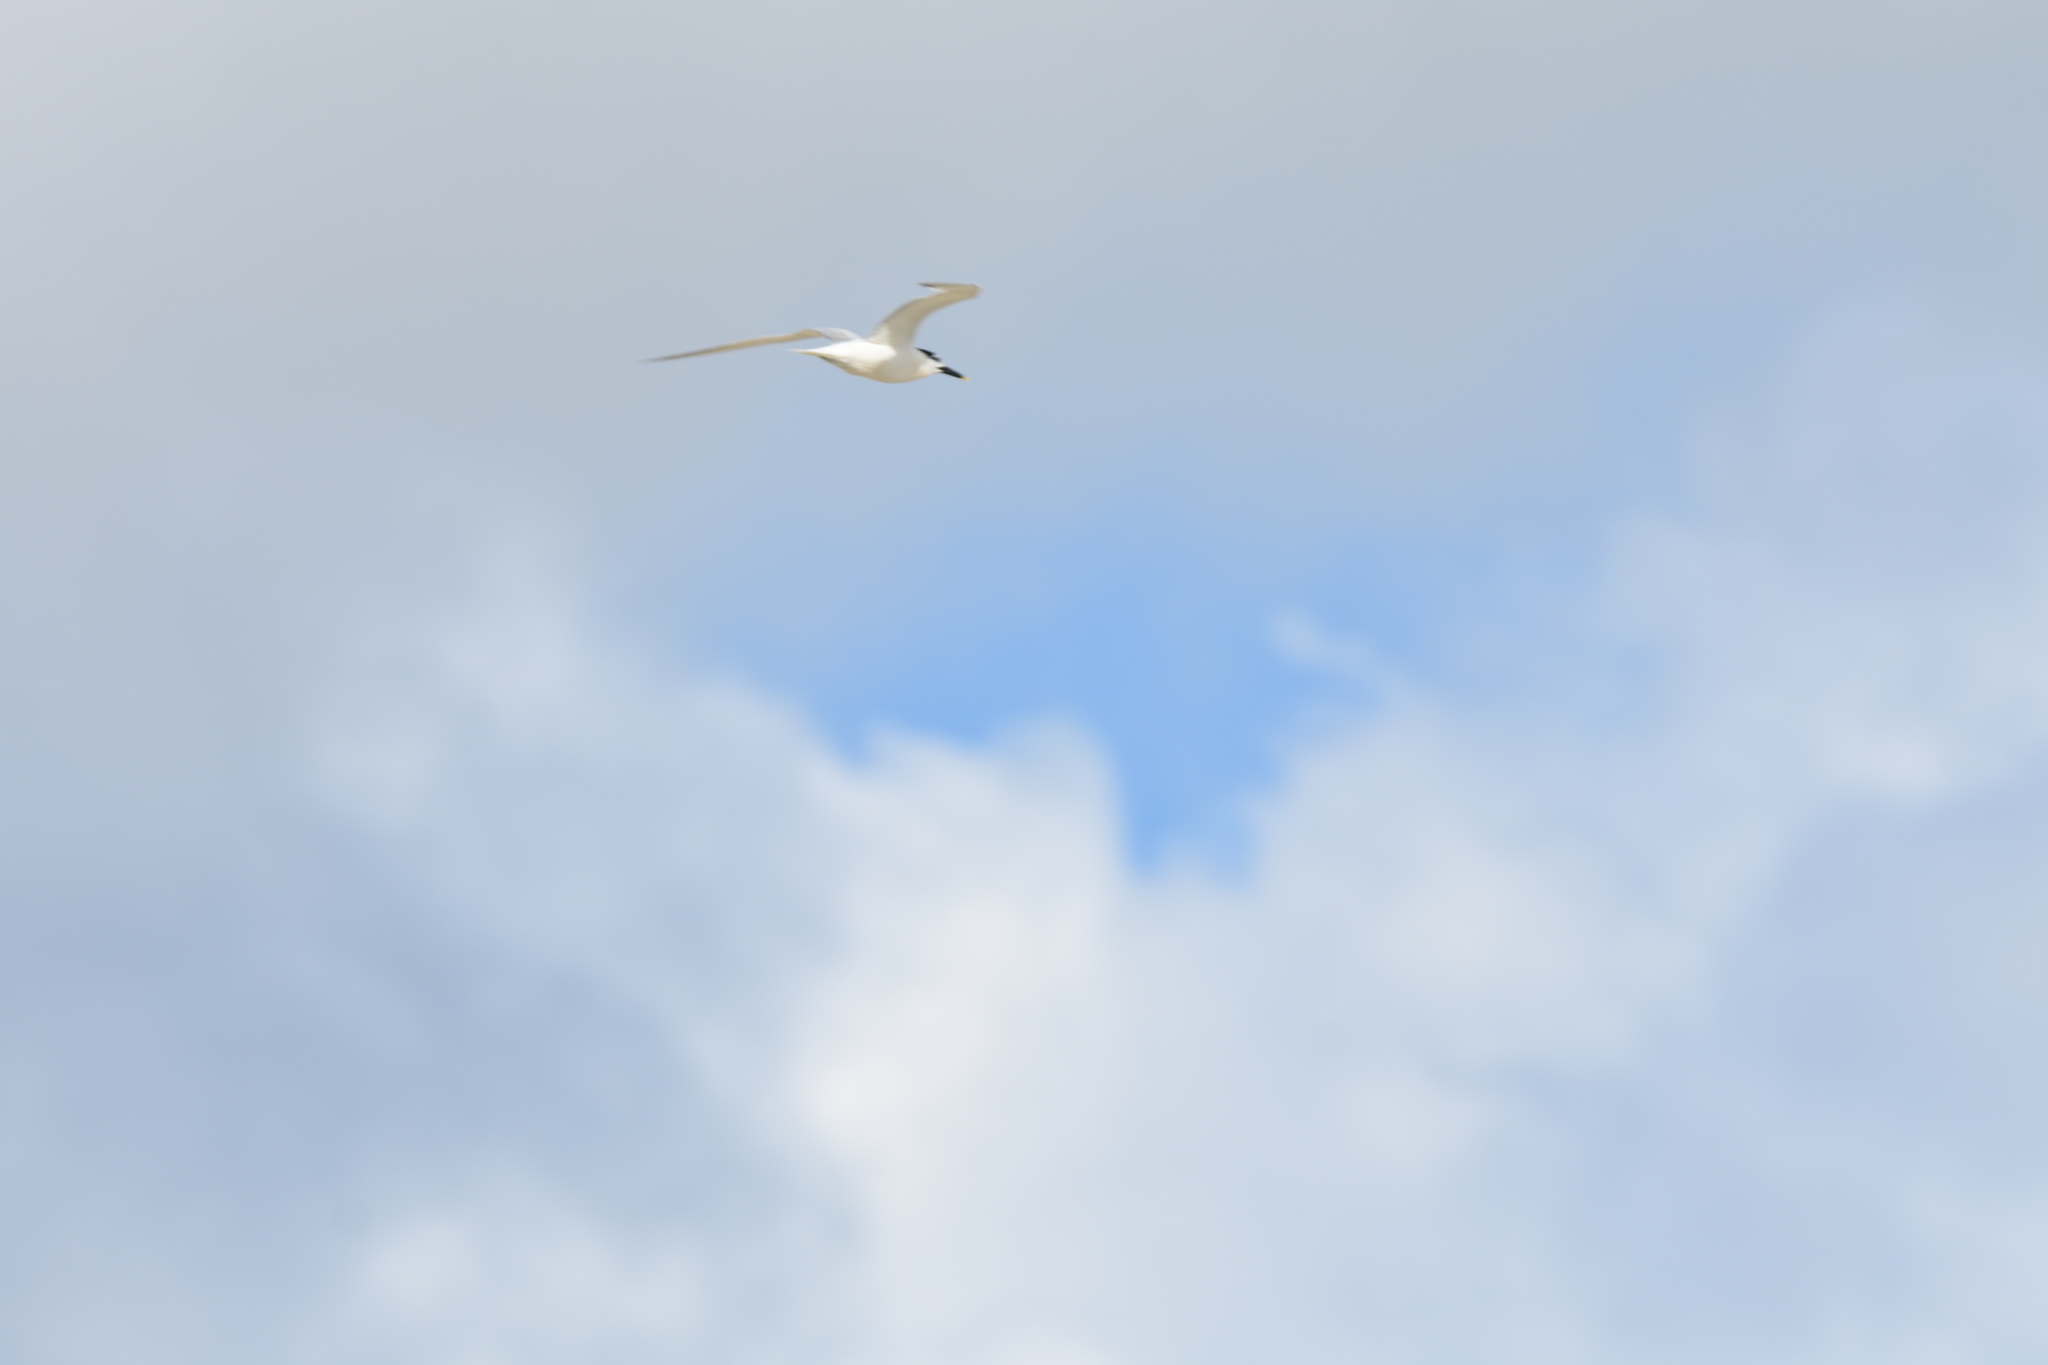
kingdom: Animalia
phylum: Chordata
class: Aves
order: Charadriiformes
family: Laridae
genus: Thalasseus
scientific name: Thalasseus sandvicensis
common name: Sandwich tern
